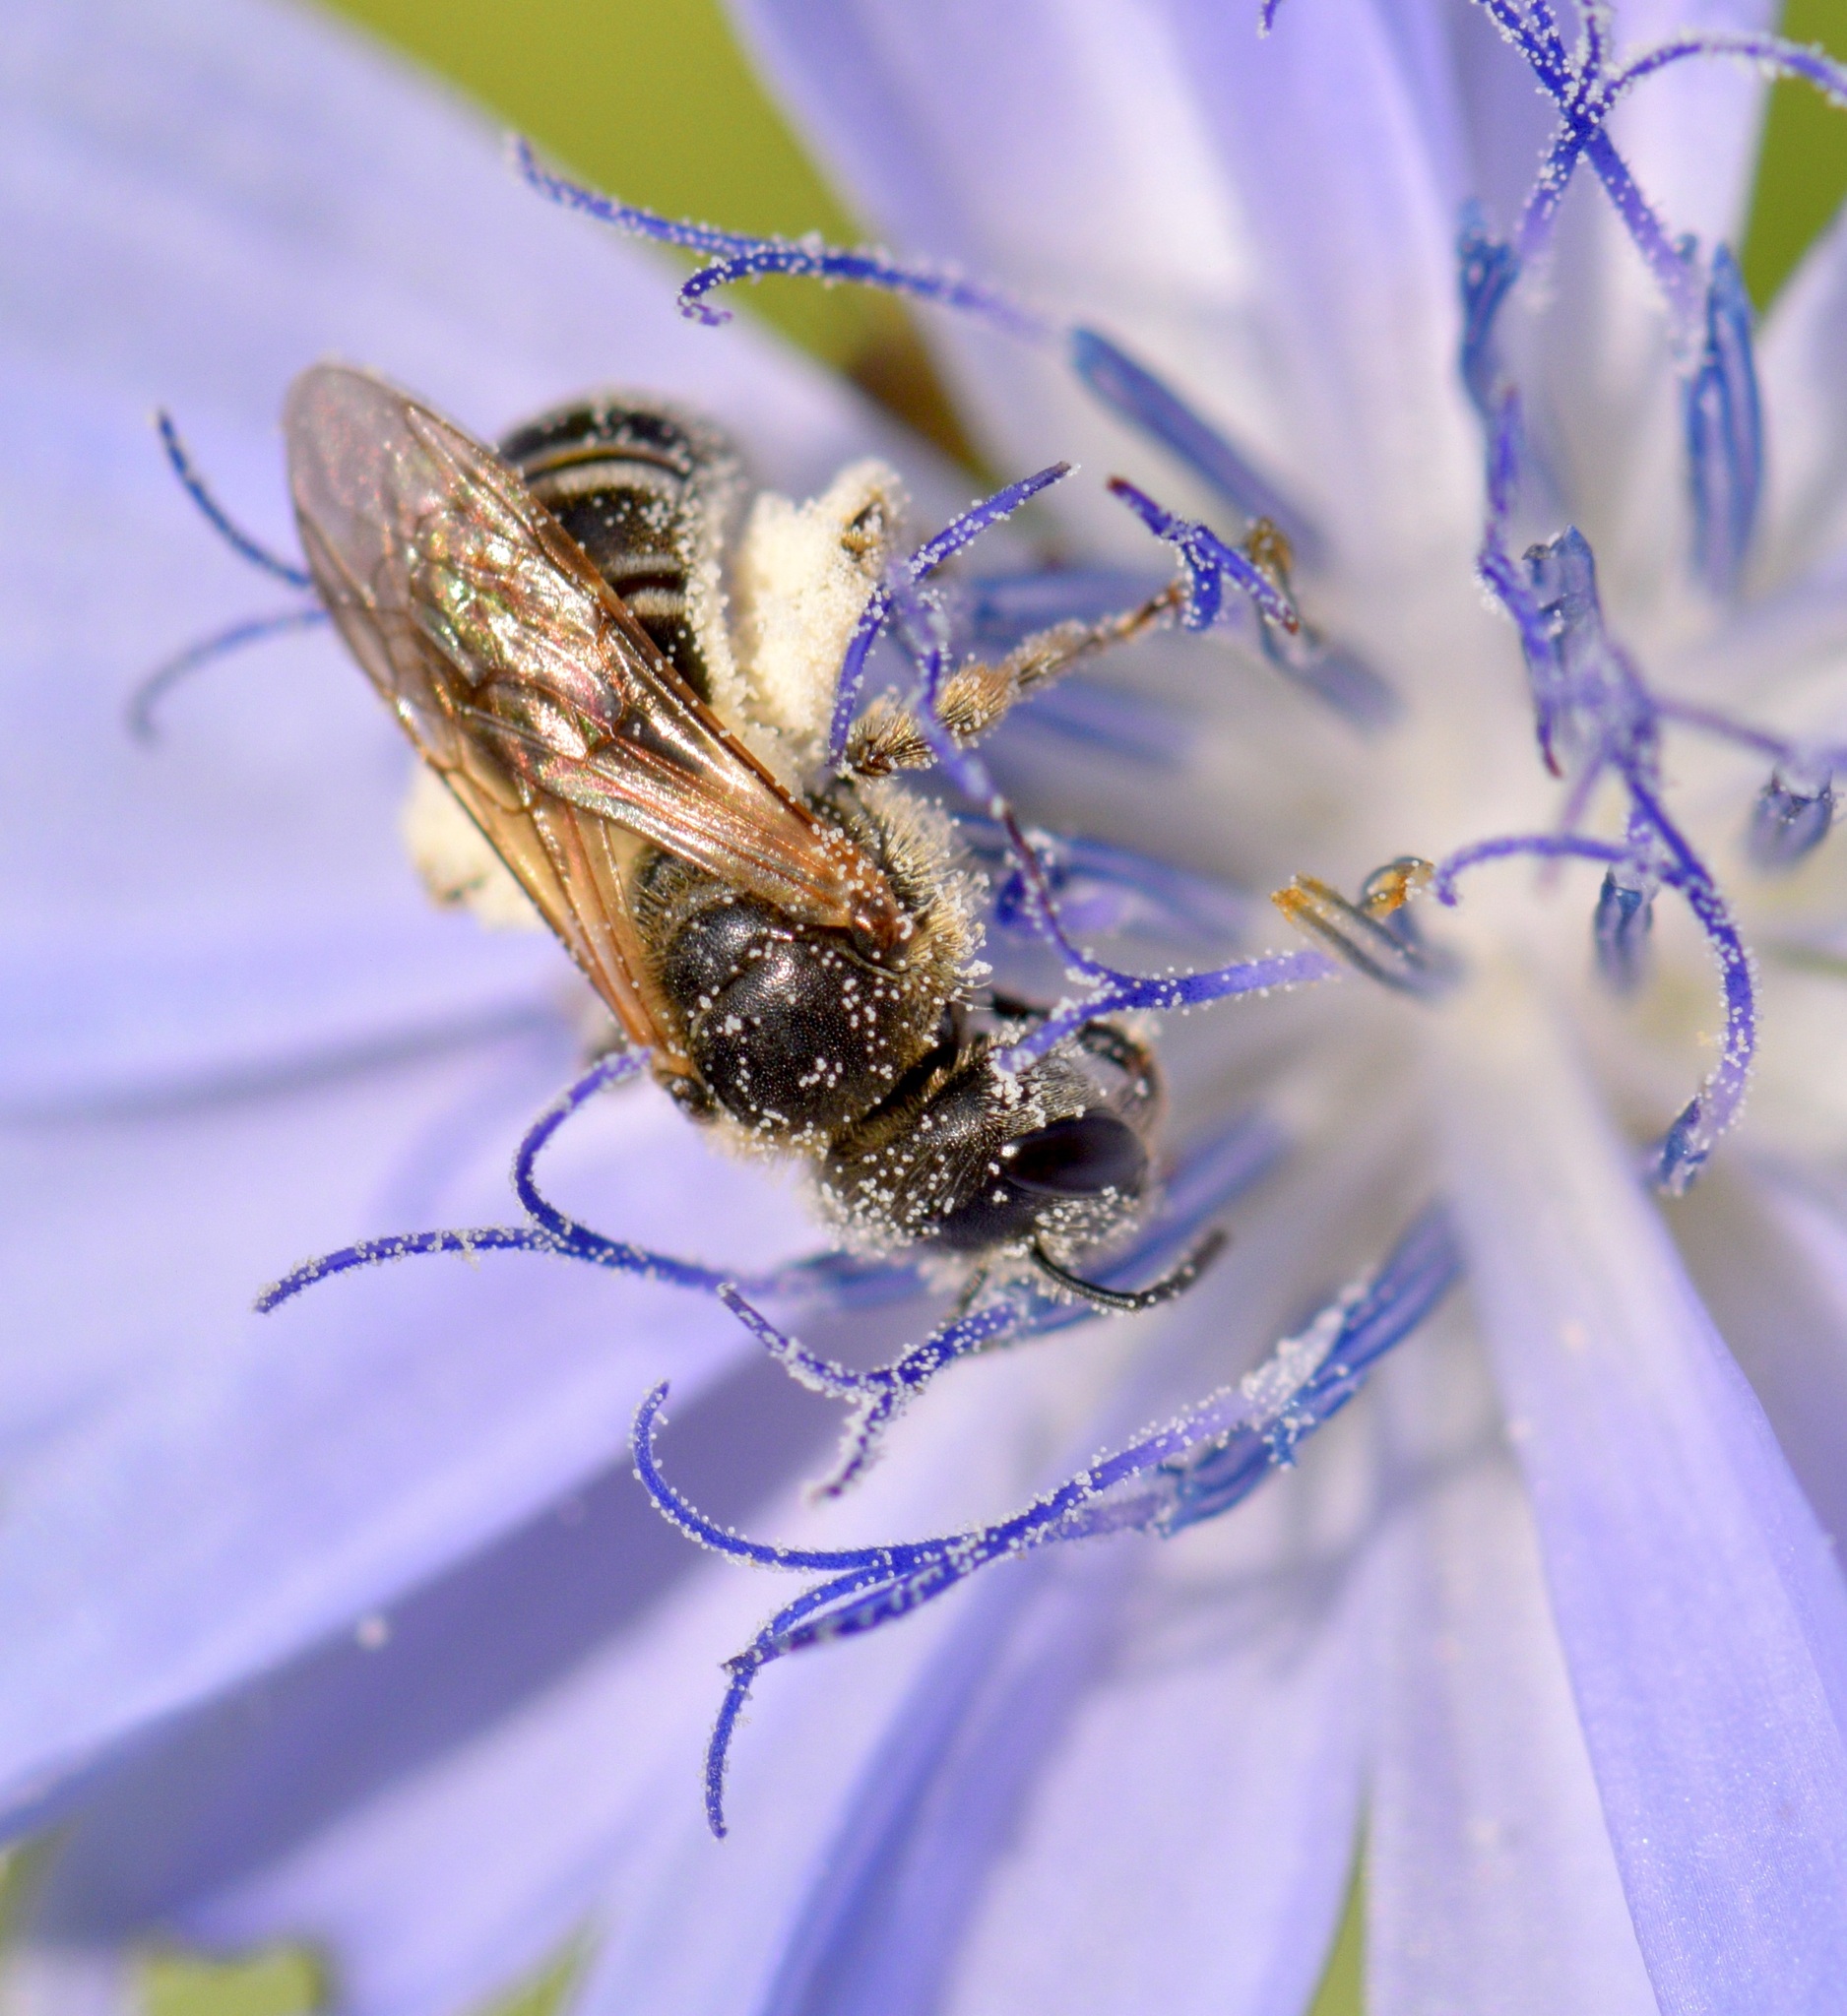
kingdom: Animalia
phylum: Arthropoda
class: Insecta
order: Hymenoptera
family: Halictidae
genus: Halictus
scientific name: Halictus ligatus
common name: Ligated furrow bee
